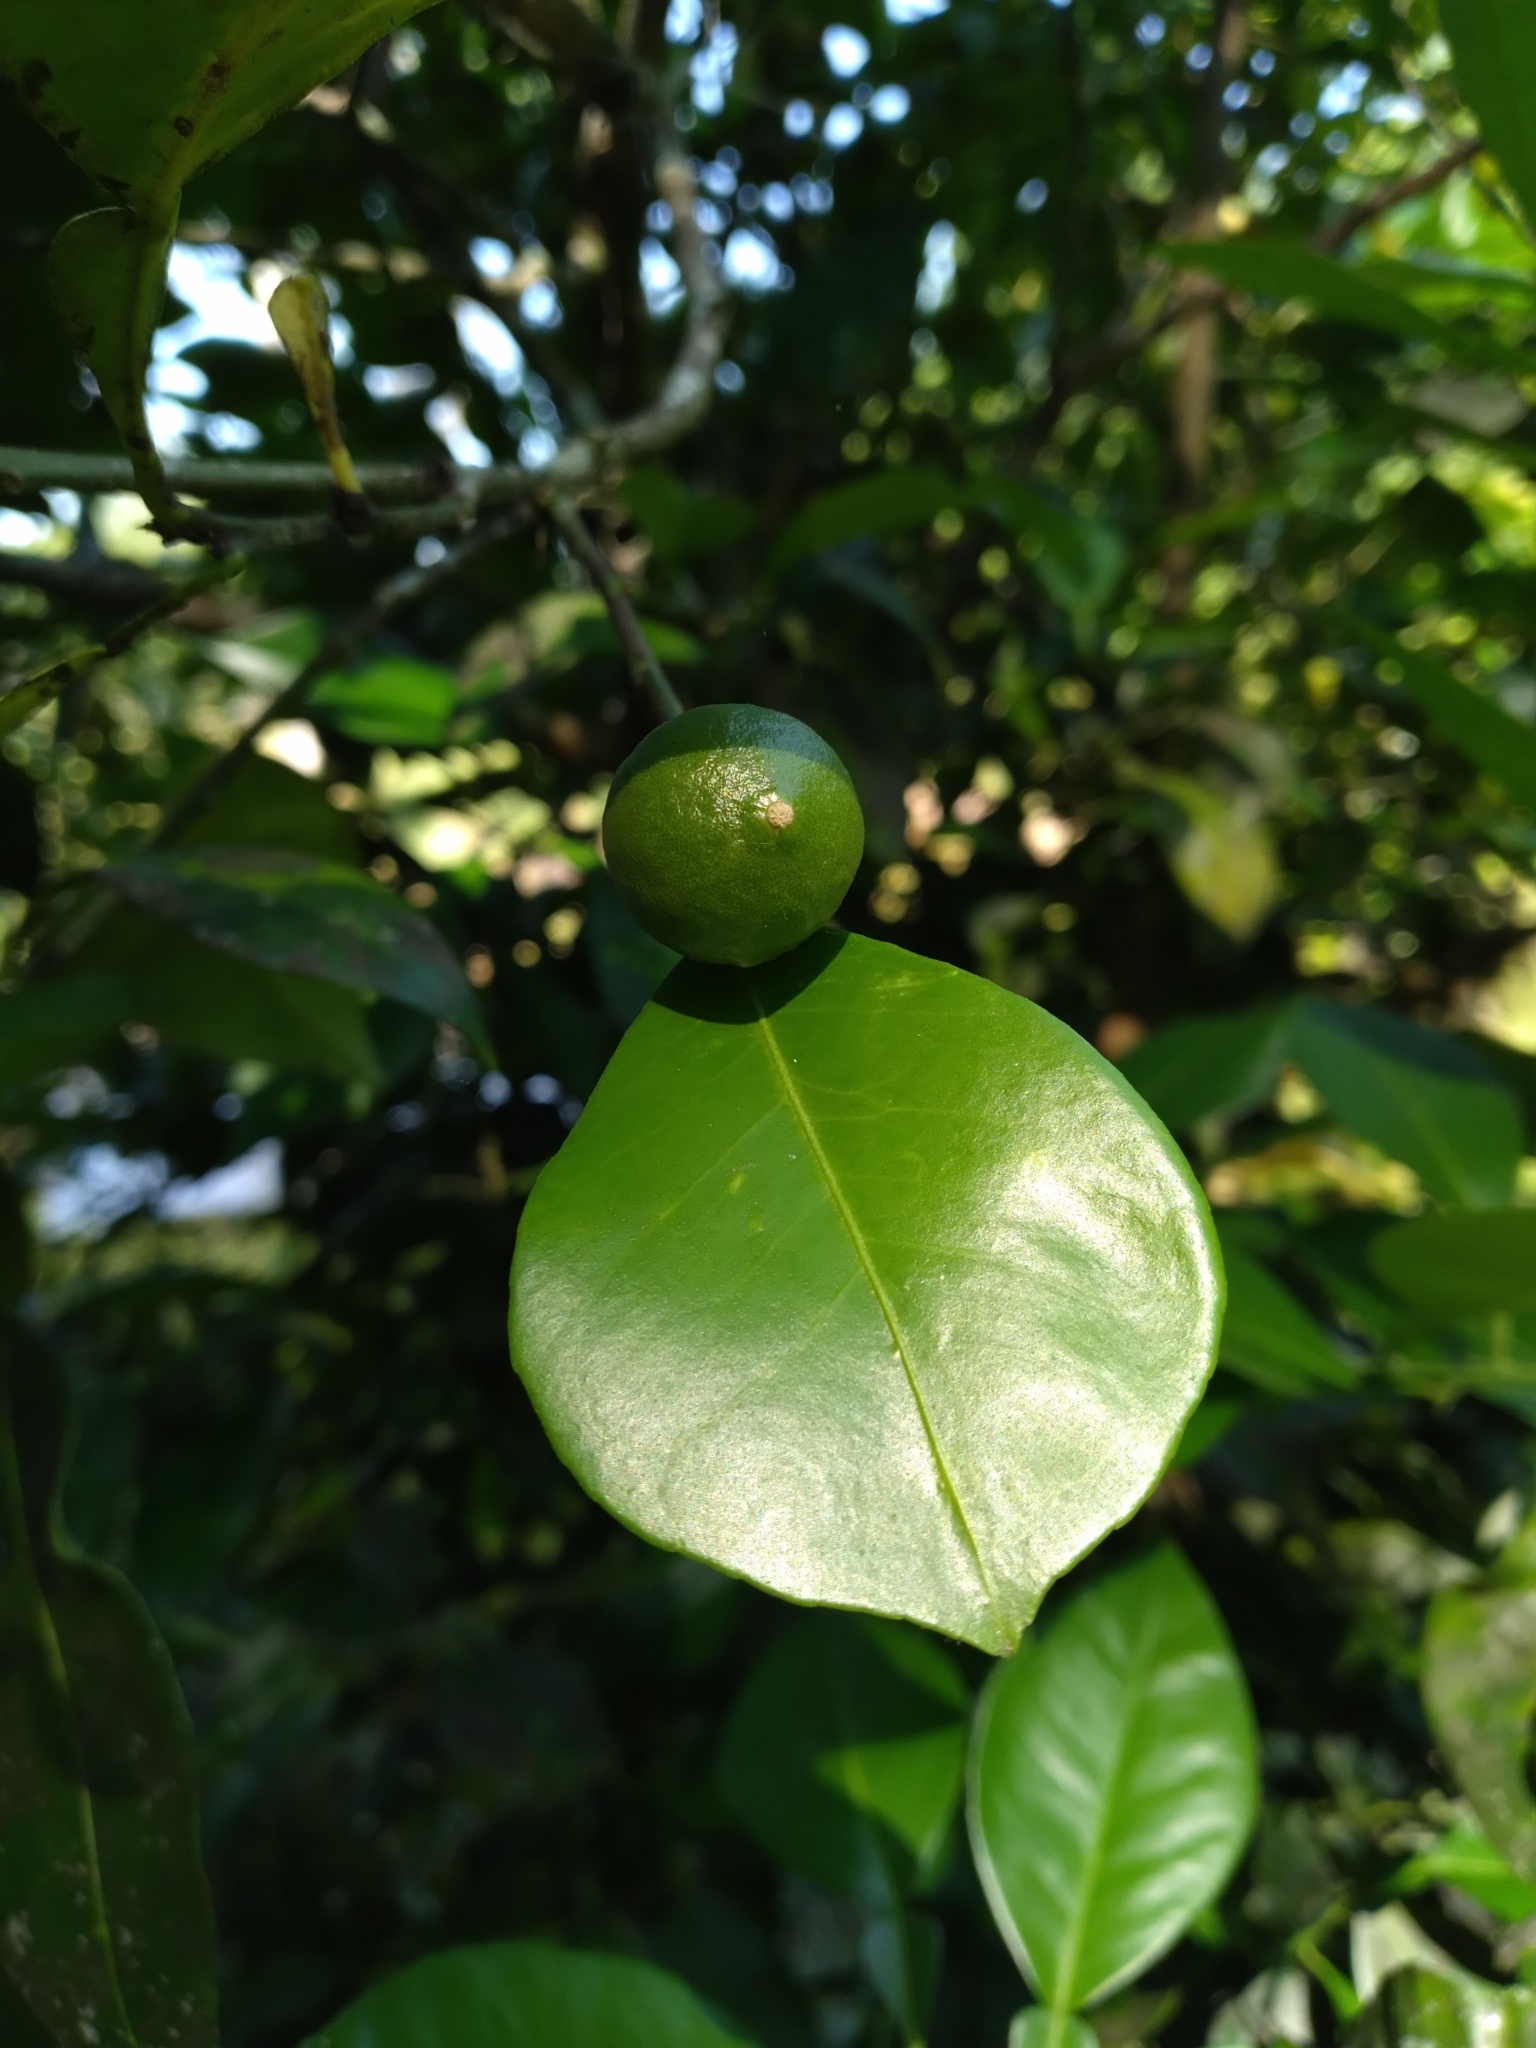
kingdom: Plantae
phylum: Tracheophyta
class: Magnoliopsida
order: Sapindales
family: Rutaceae
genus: Citrus
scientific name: Citrus aurantium
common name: Sour orange
